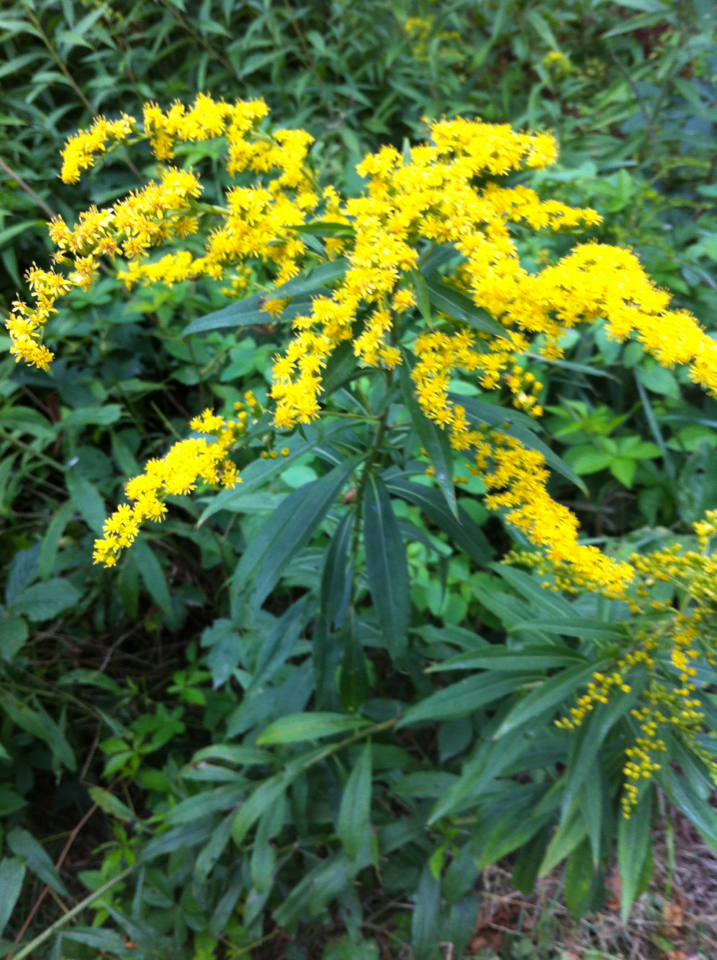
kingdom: Plantae
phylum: Tracheophyta
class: Magnoliopsida
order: Asterales
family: Asteraceae
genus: Solidago
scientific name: Solidago
